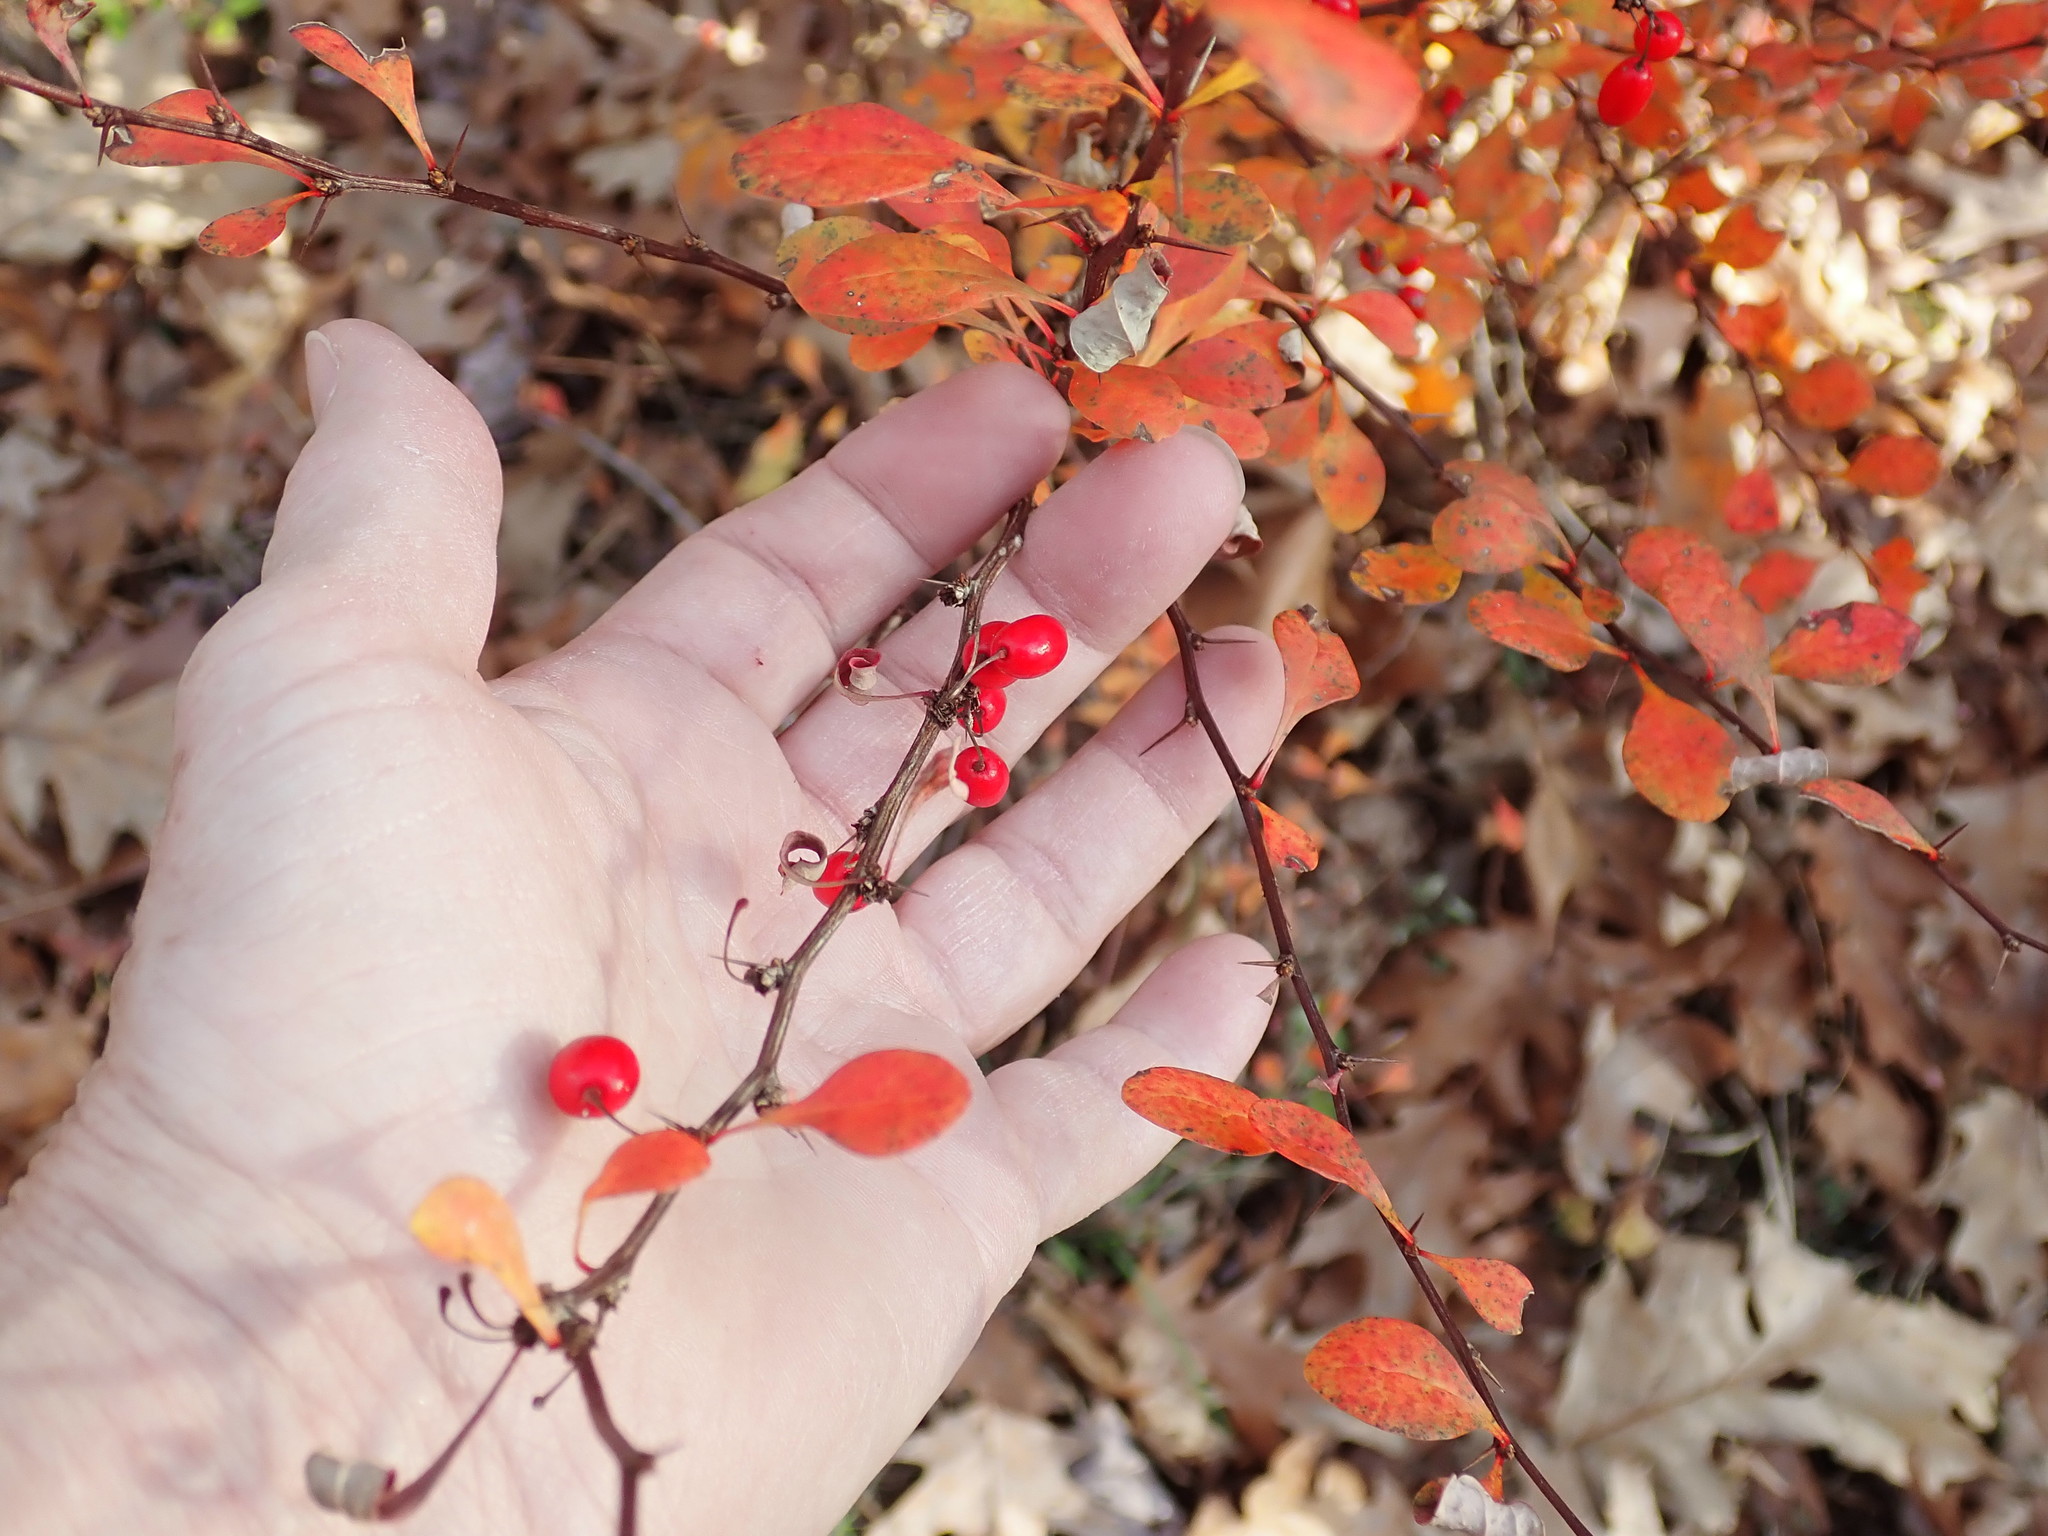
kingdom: Plantae
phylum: Tracheophyta
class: Magnoliopsida
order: Ranunculales
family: Berberidaceae
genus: Berberis
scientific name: Berberis thunbergii
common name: Japanese barberry
